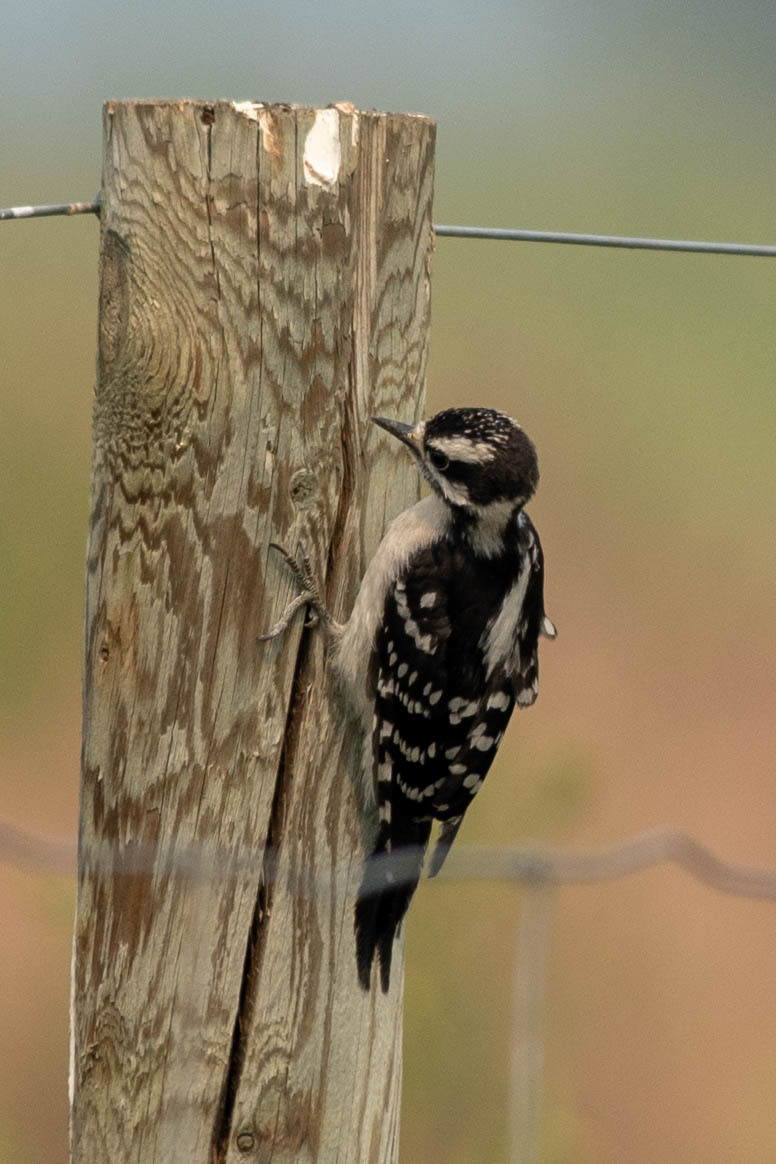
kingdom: Animalia
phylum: Chordata
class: Aves
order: Piciformes
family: Picidae
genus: Dryobates
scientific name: Dryobates pubescens
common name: Downy woodpecker
